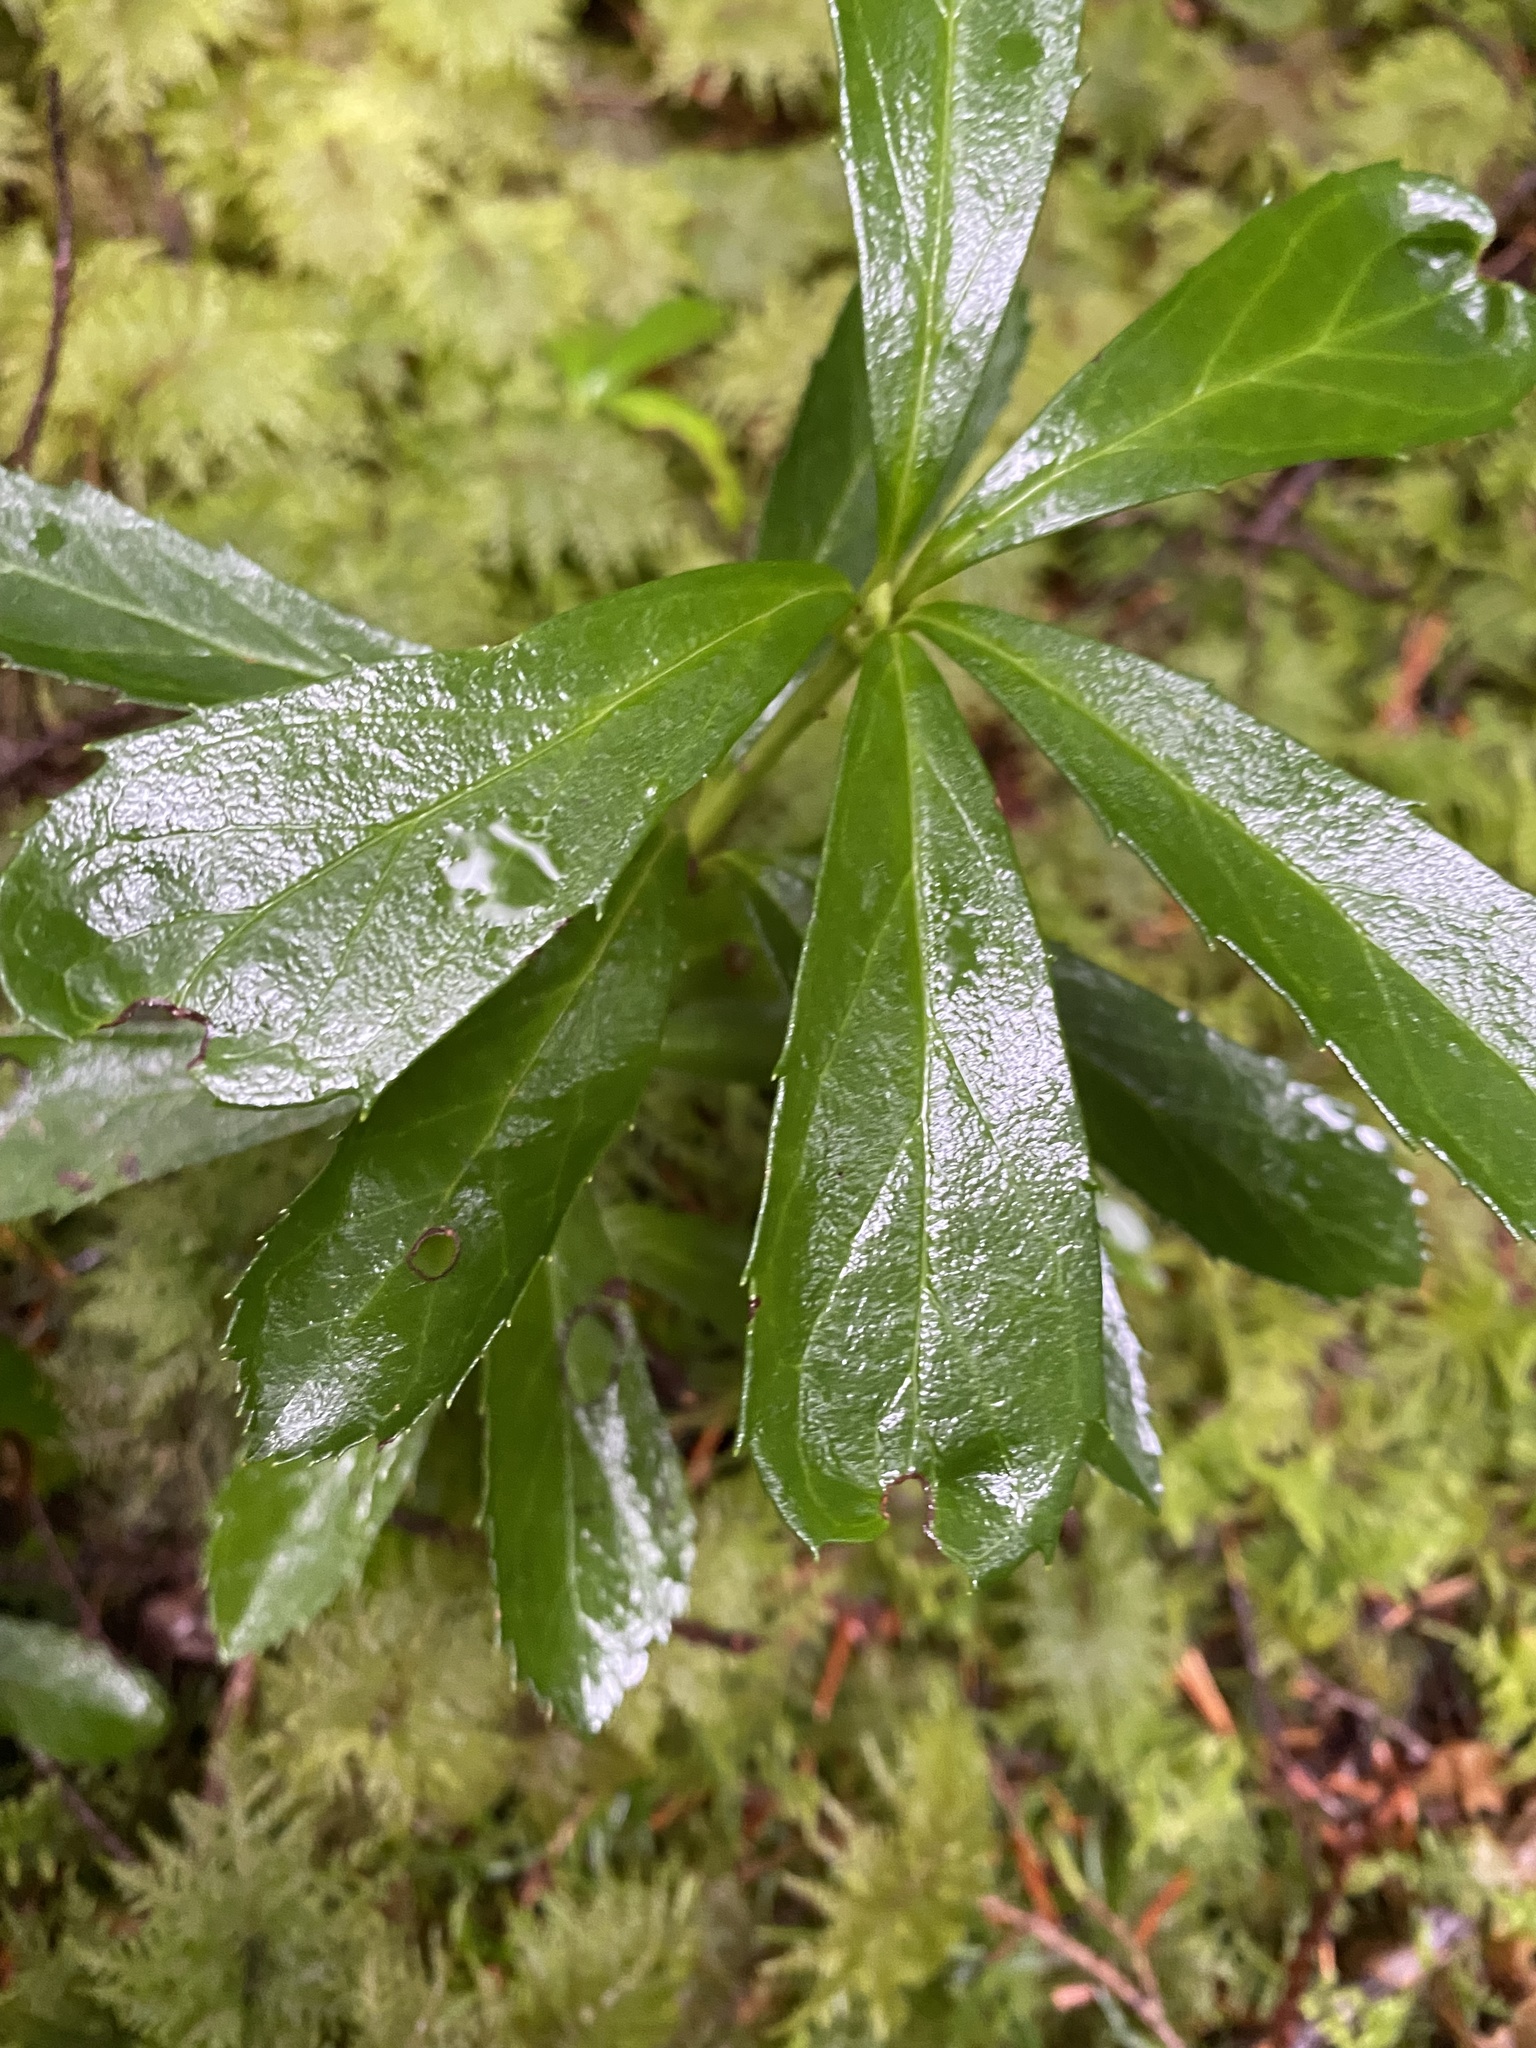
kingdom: Plantae
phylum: Tracheophyta
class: Magnoliopsida
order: Ericales
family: Ericaceae
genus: Chimaphila
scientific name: Chimaphila umbellata
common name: Pipsissewa
